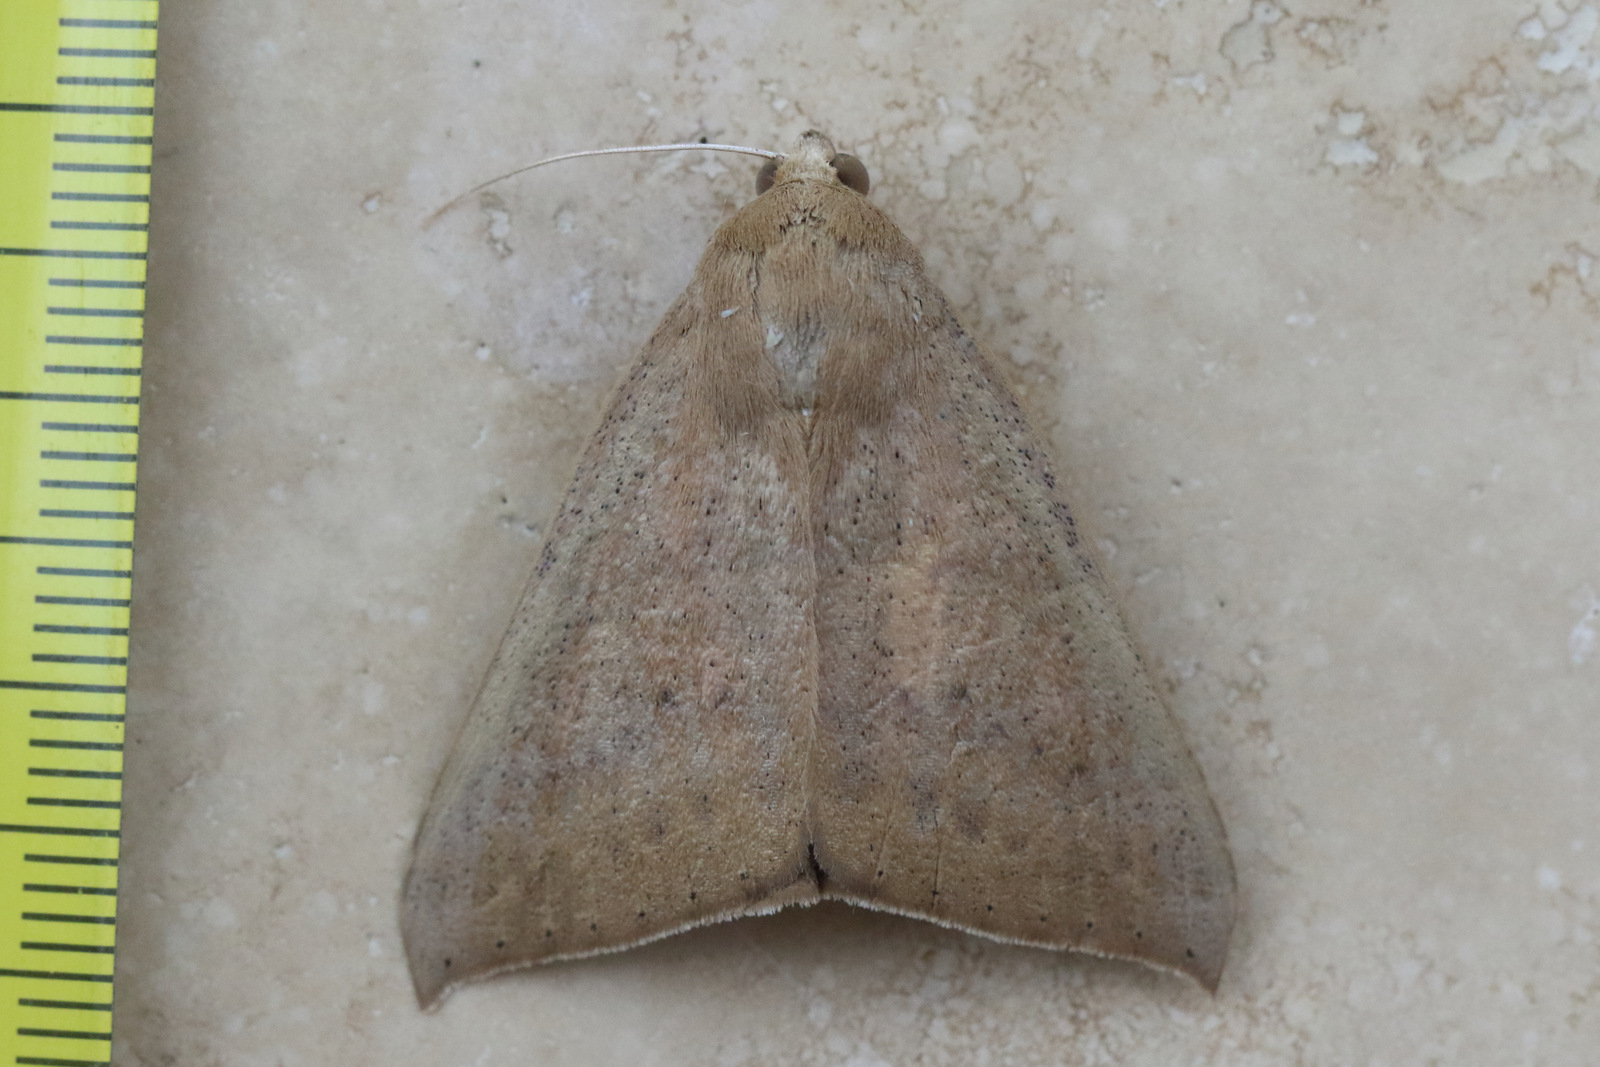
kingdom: Animalia
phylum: Arthropoda
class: Insecta
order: Lepidoptera
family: Erebidae
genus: Ophisma
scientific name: Ophisma gravata
